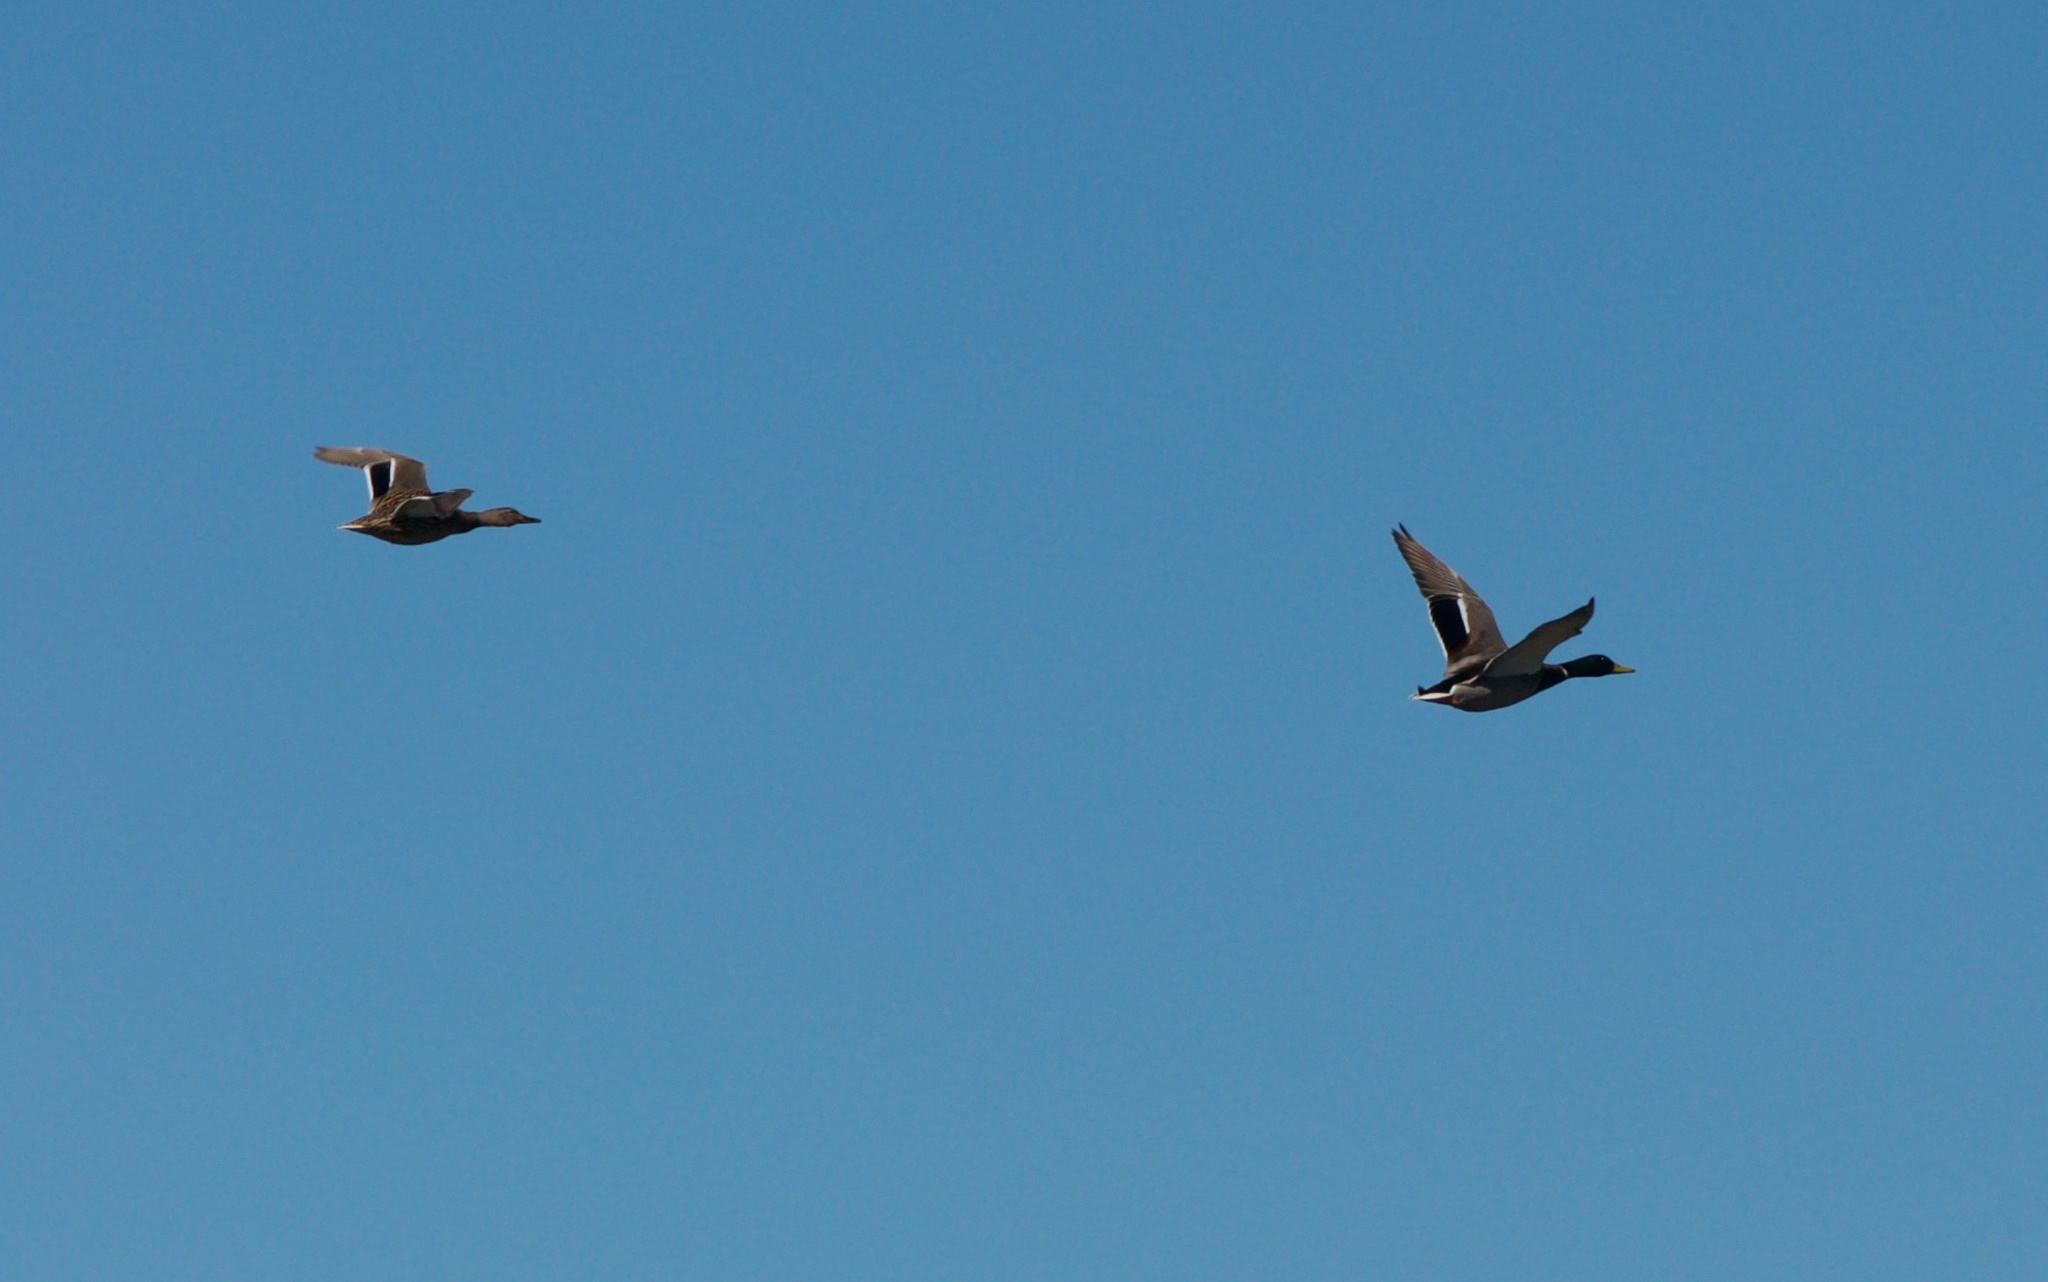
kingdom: Animalia
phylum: Chordata
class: Aves
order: Anseriformes
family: Anatidae
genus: Anas
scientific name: Anas platyrhynchos
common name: Mallard
